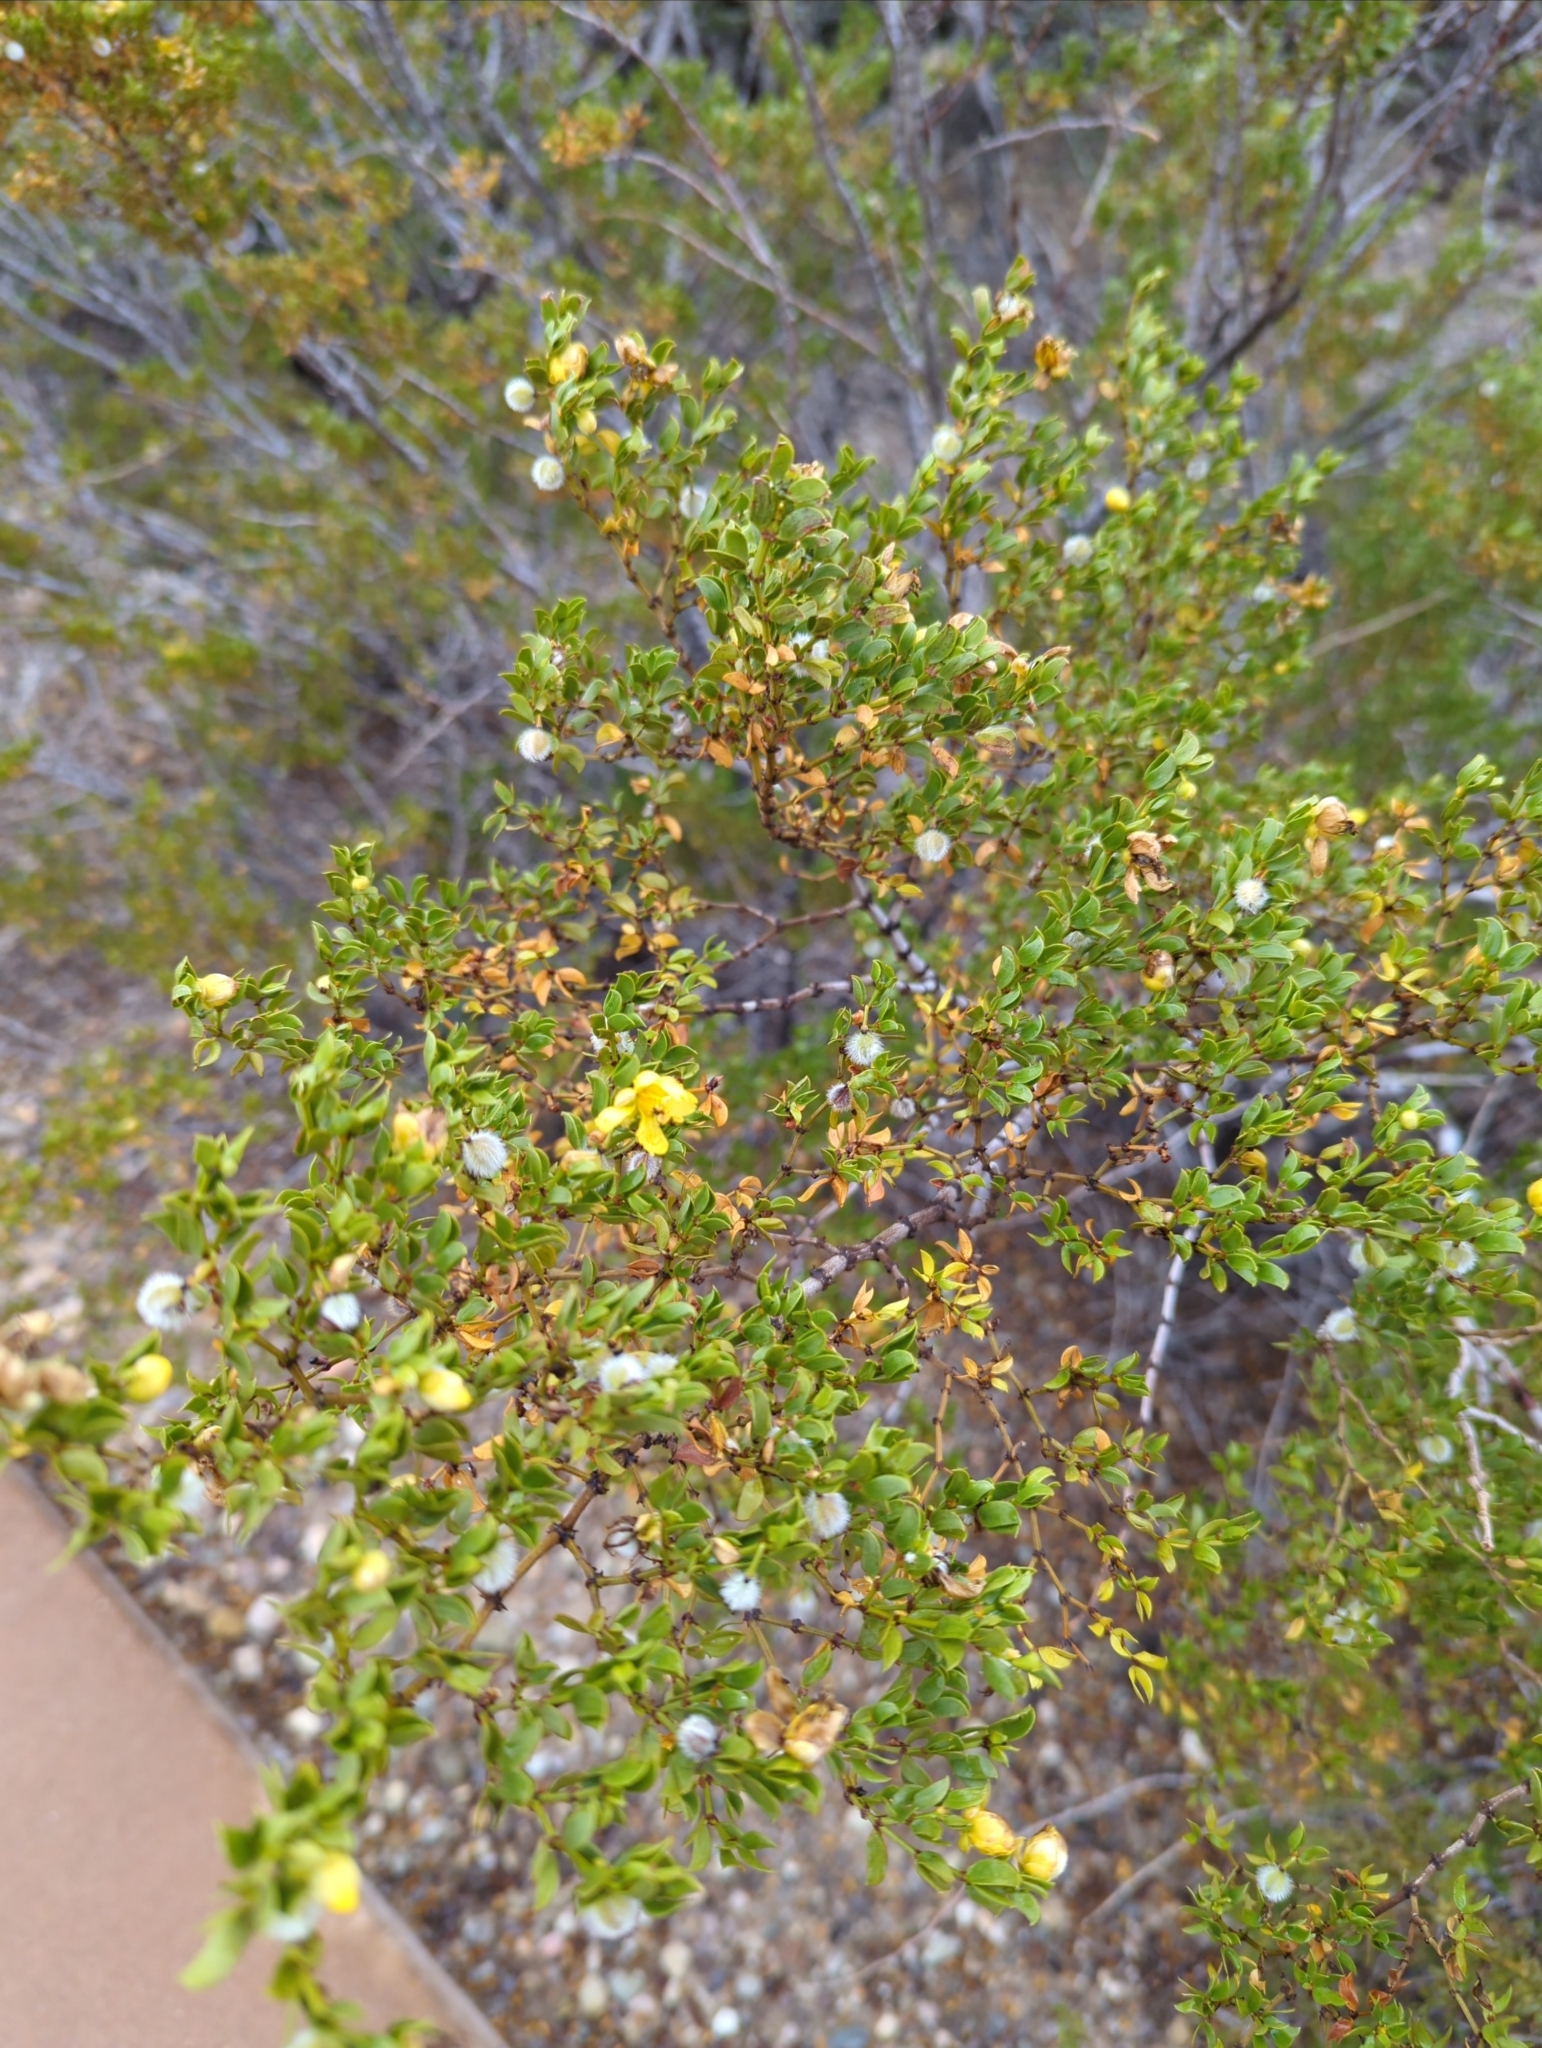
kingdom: Plantae
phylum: Tracheophyta
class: Magnoliopsida
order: Zygophyllales
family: Zygophyllaceae
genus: Larrea
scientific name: Larrea tridentata
